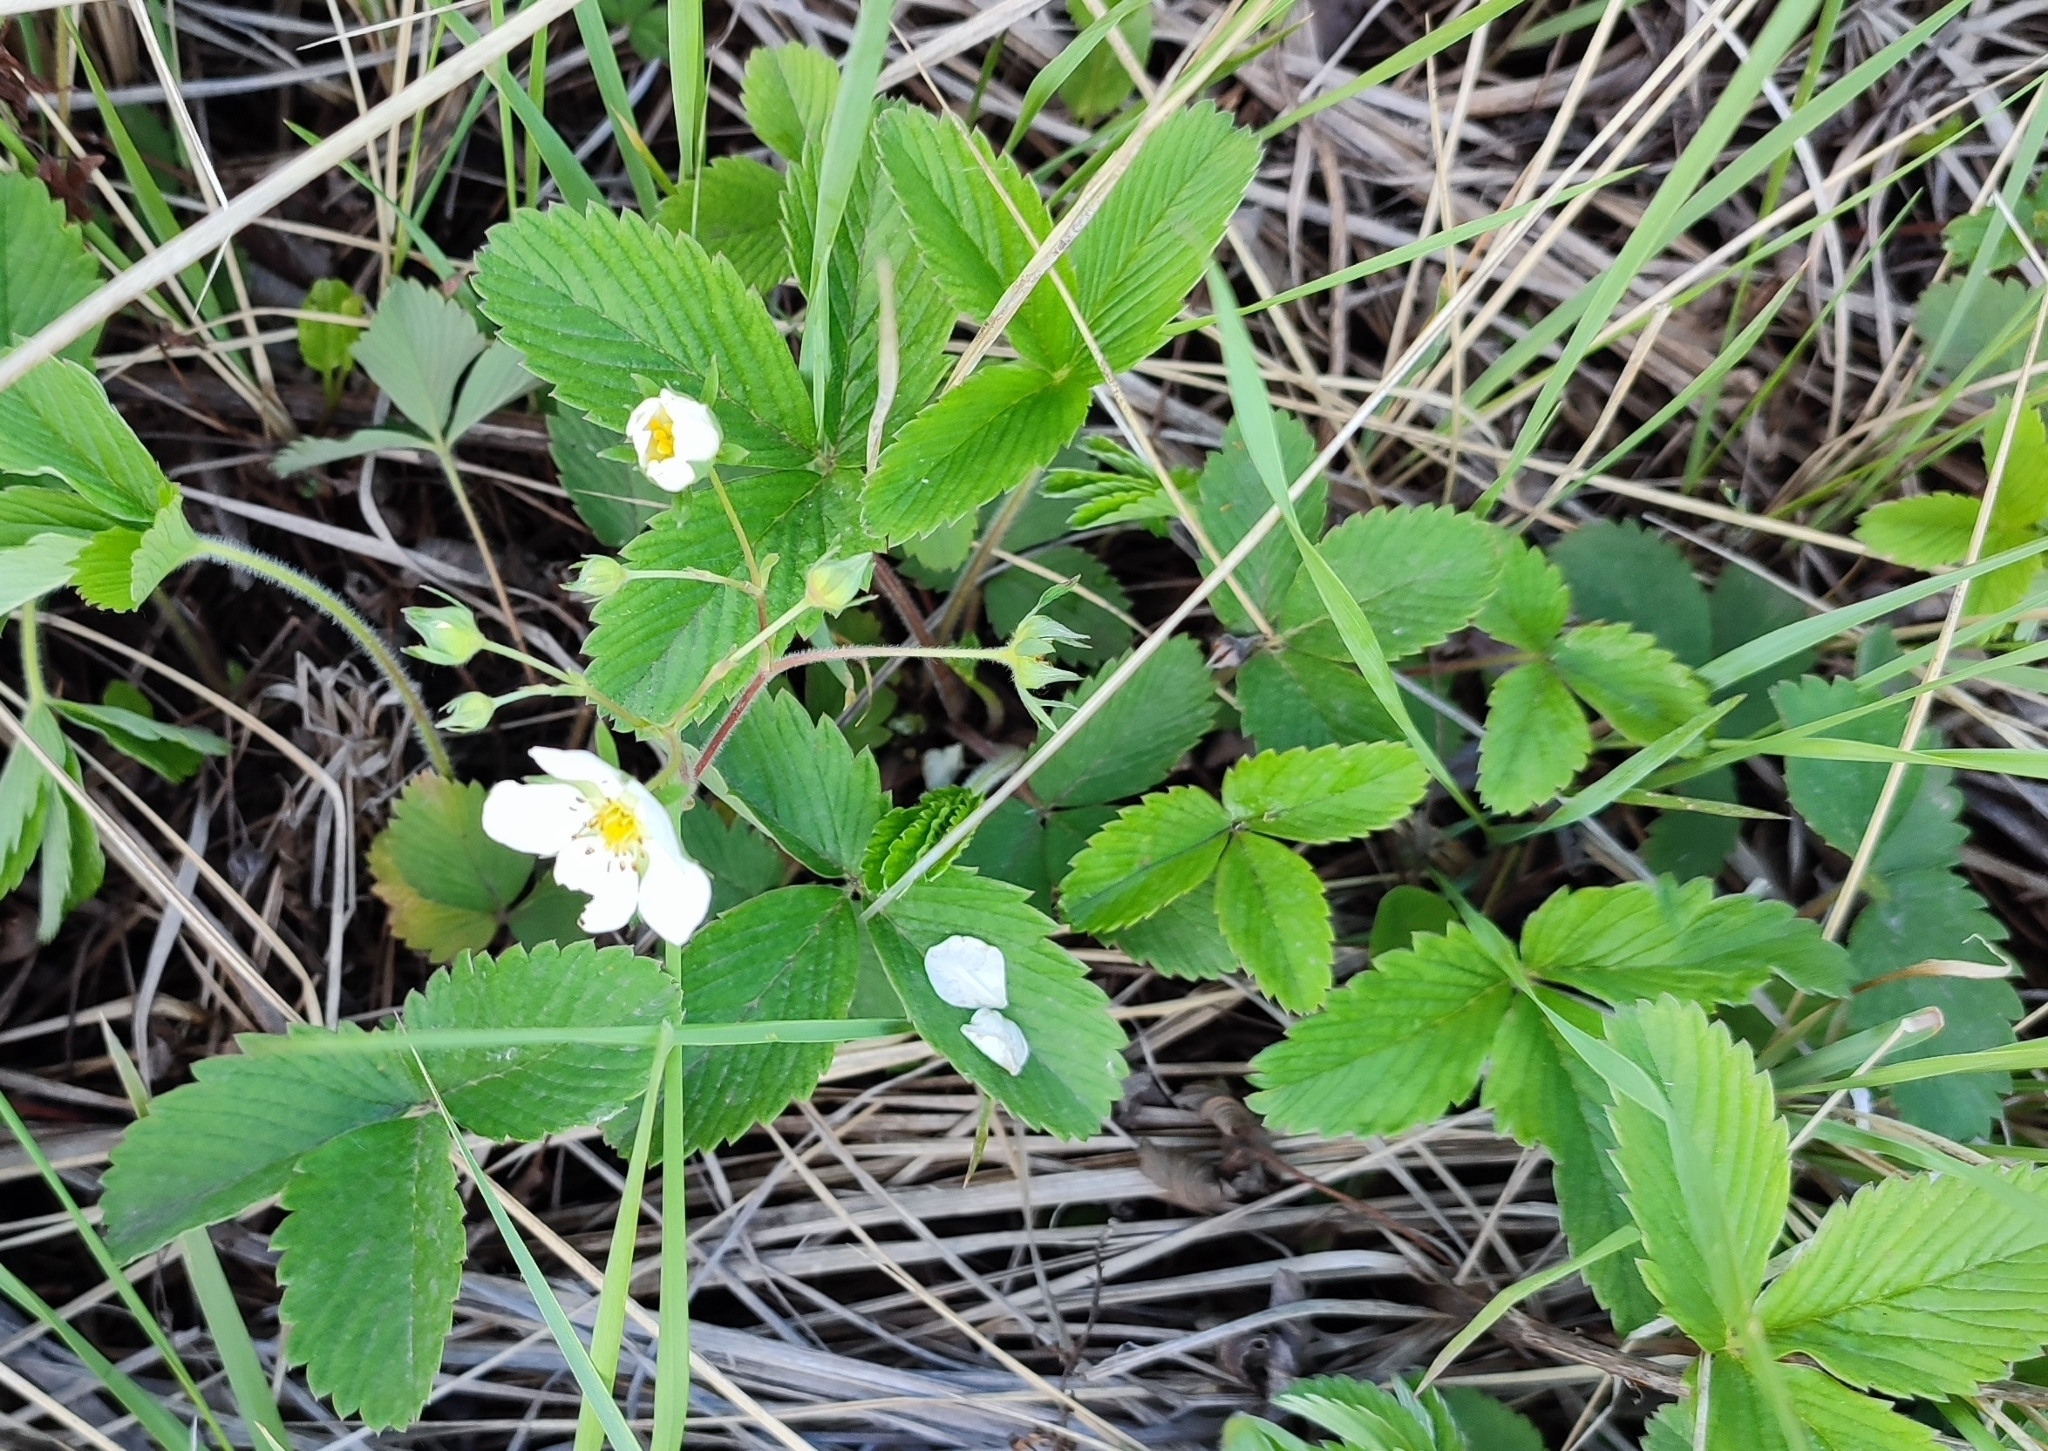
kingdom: Plantae
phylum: Tracheophyta
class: Magnoliopsida
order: Rosales
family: Rosaceae
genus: Fragaria
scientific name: Fragaria viridis
